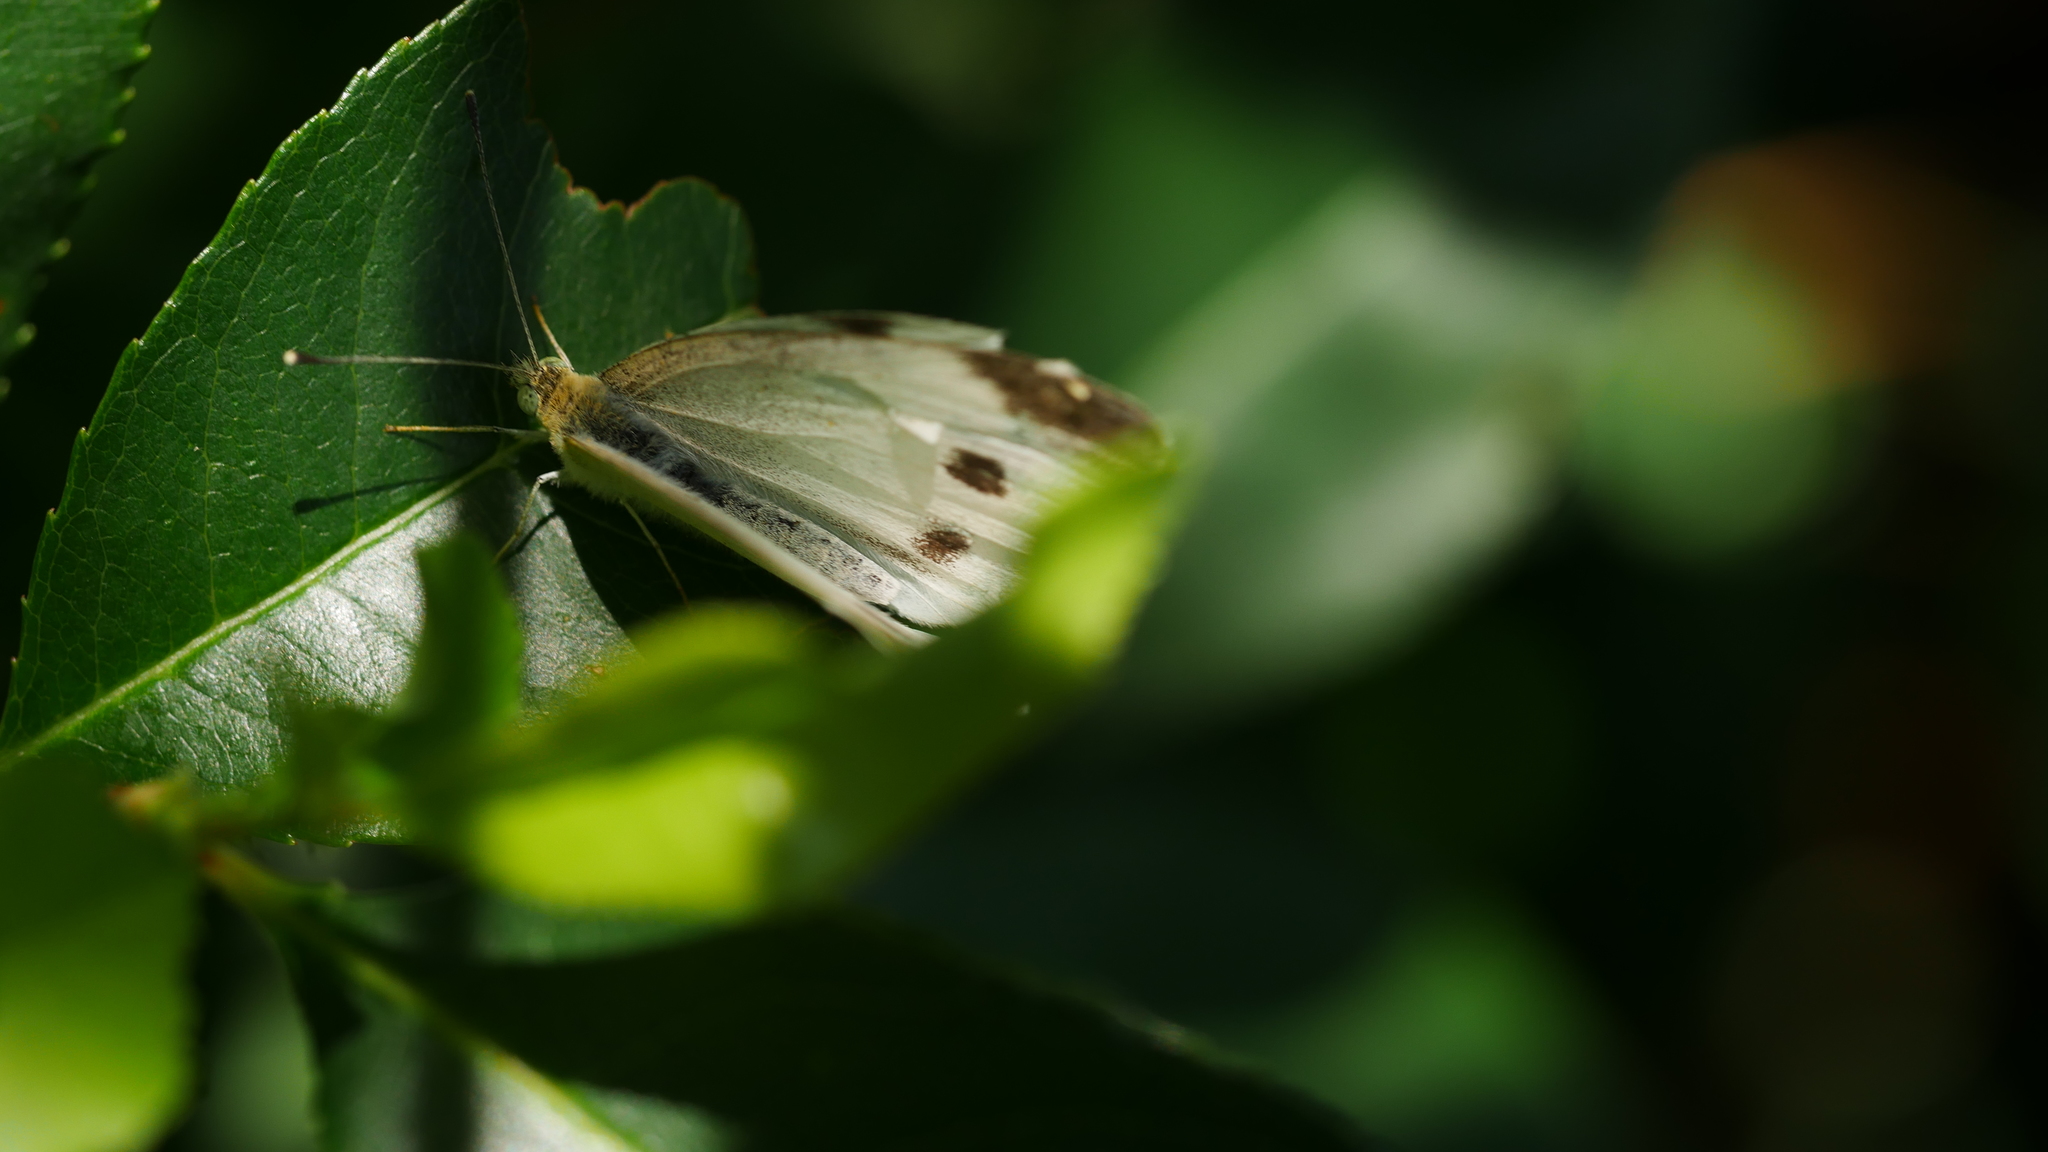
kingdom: Animalia
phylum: Arthropoda
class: Insecta
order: Lepidoptera
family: Pieridae
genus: Pieris
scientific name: Pieris rapae
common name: Small white
